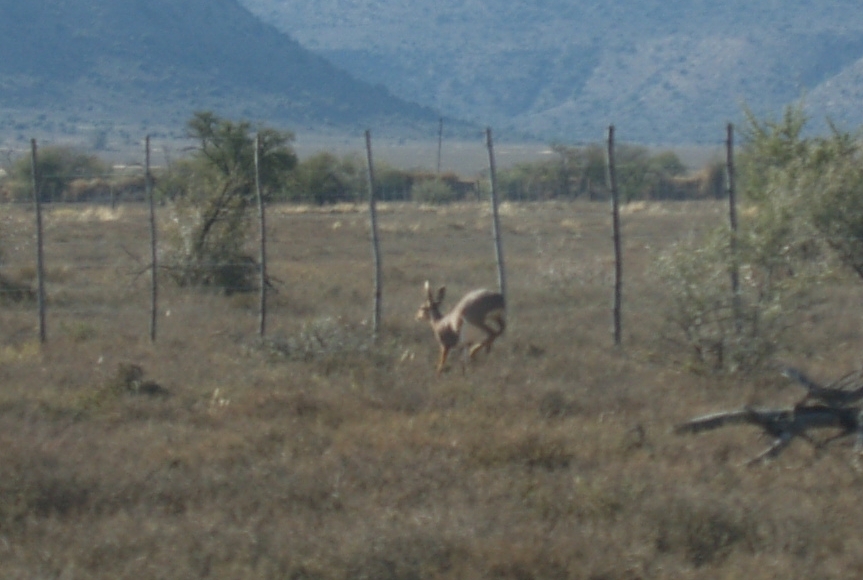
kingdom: Animalia
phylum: Chordata
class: Mammalia
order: Artiodactyla
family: Bovidae
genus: Raphicerus
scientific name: Raphicerus campestris
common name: Steenbok
